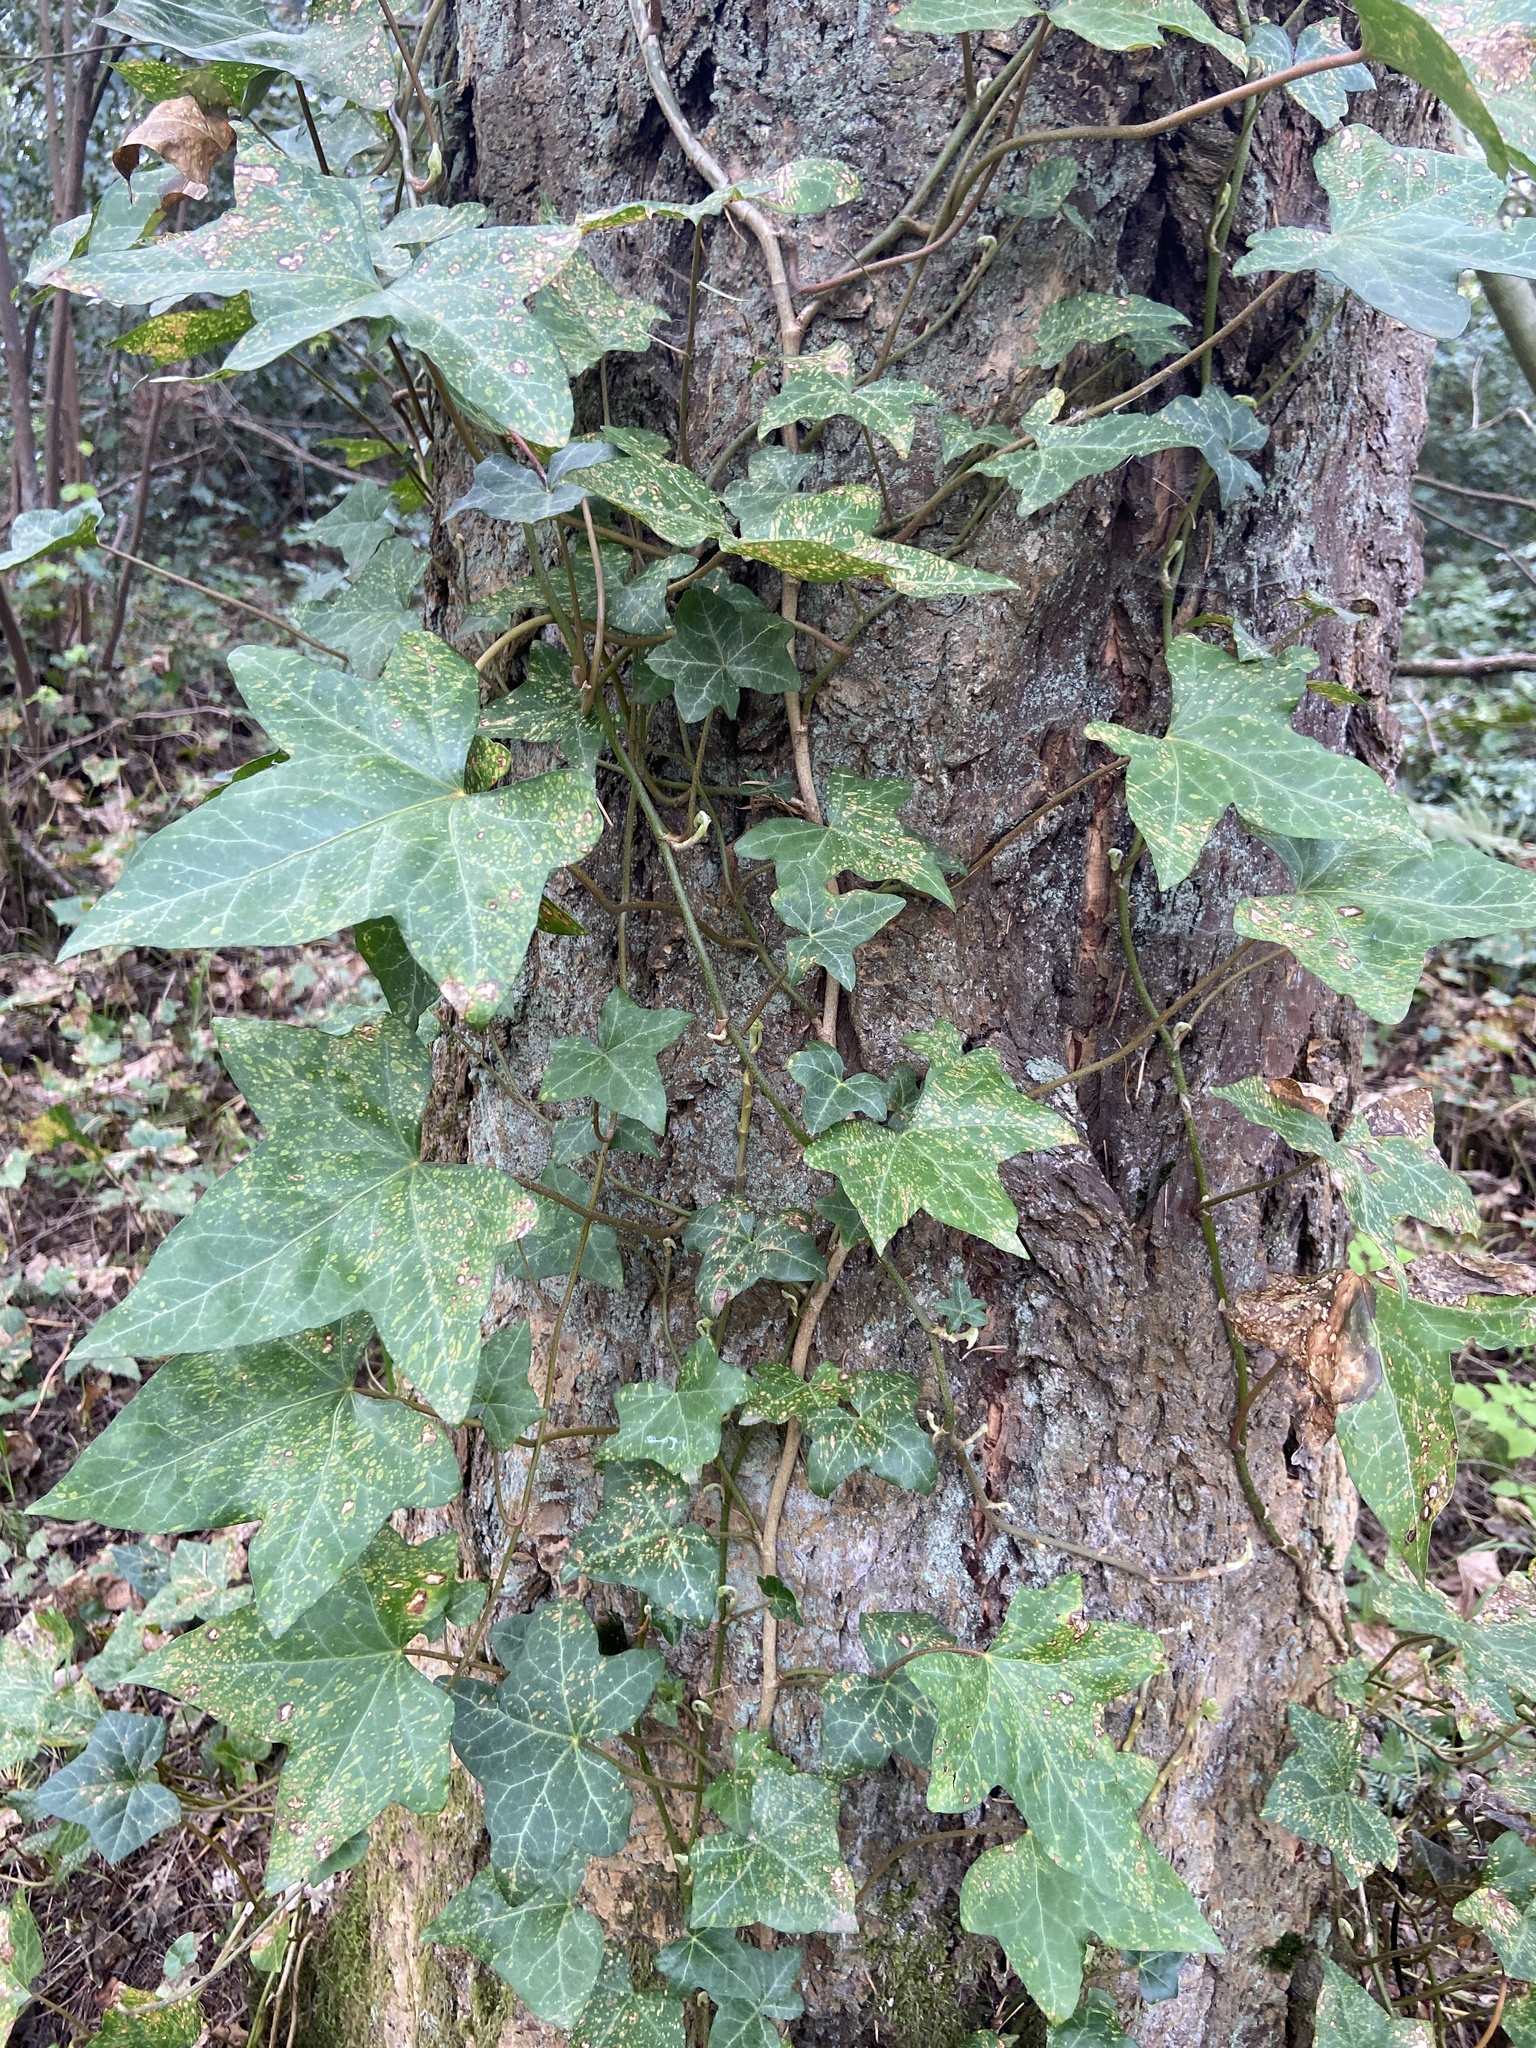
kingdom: Plantae
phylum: Tracheophyta
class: Magnoliopsida
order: Apiales
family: Araliaceae
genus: Hedera
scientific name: Hedera helix
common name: Ivy
